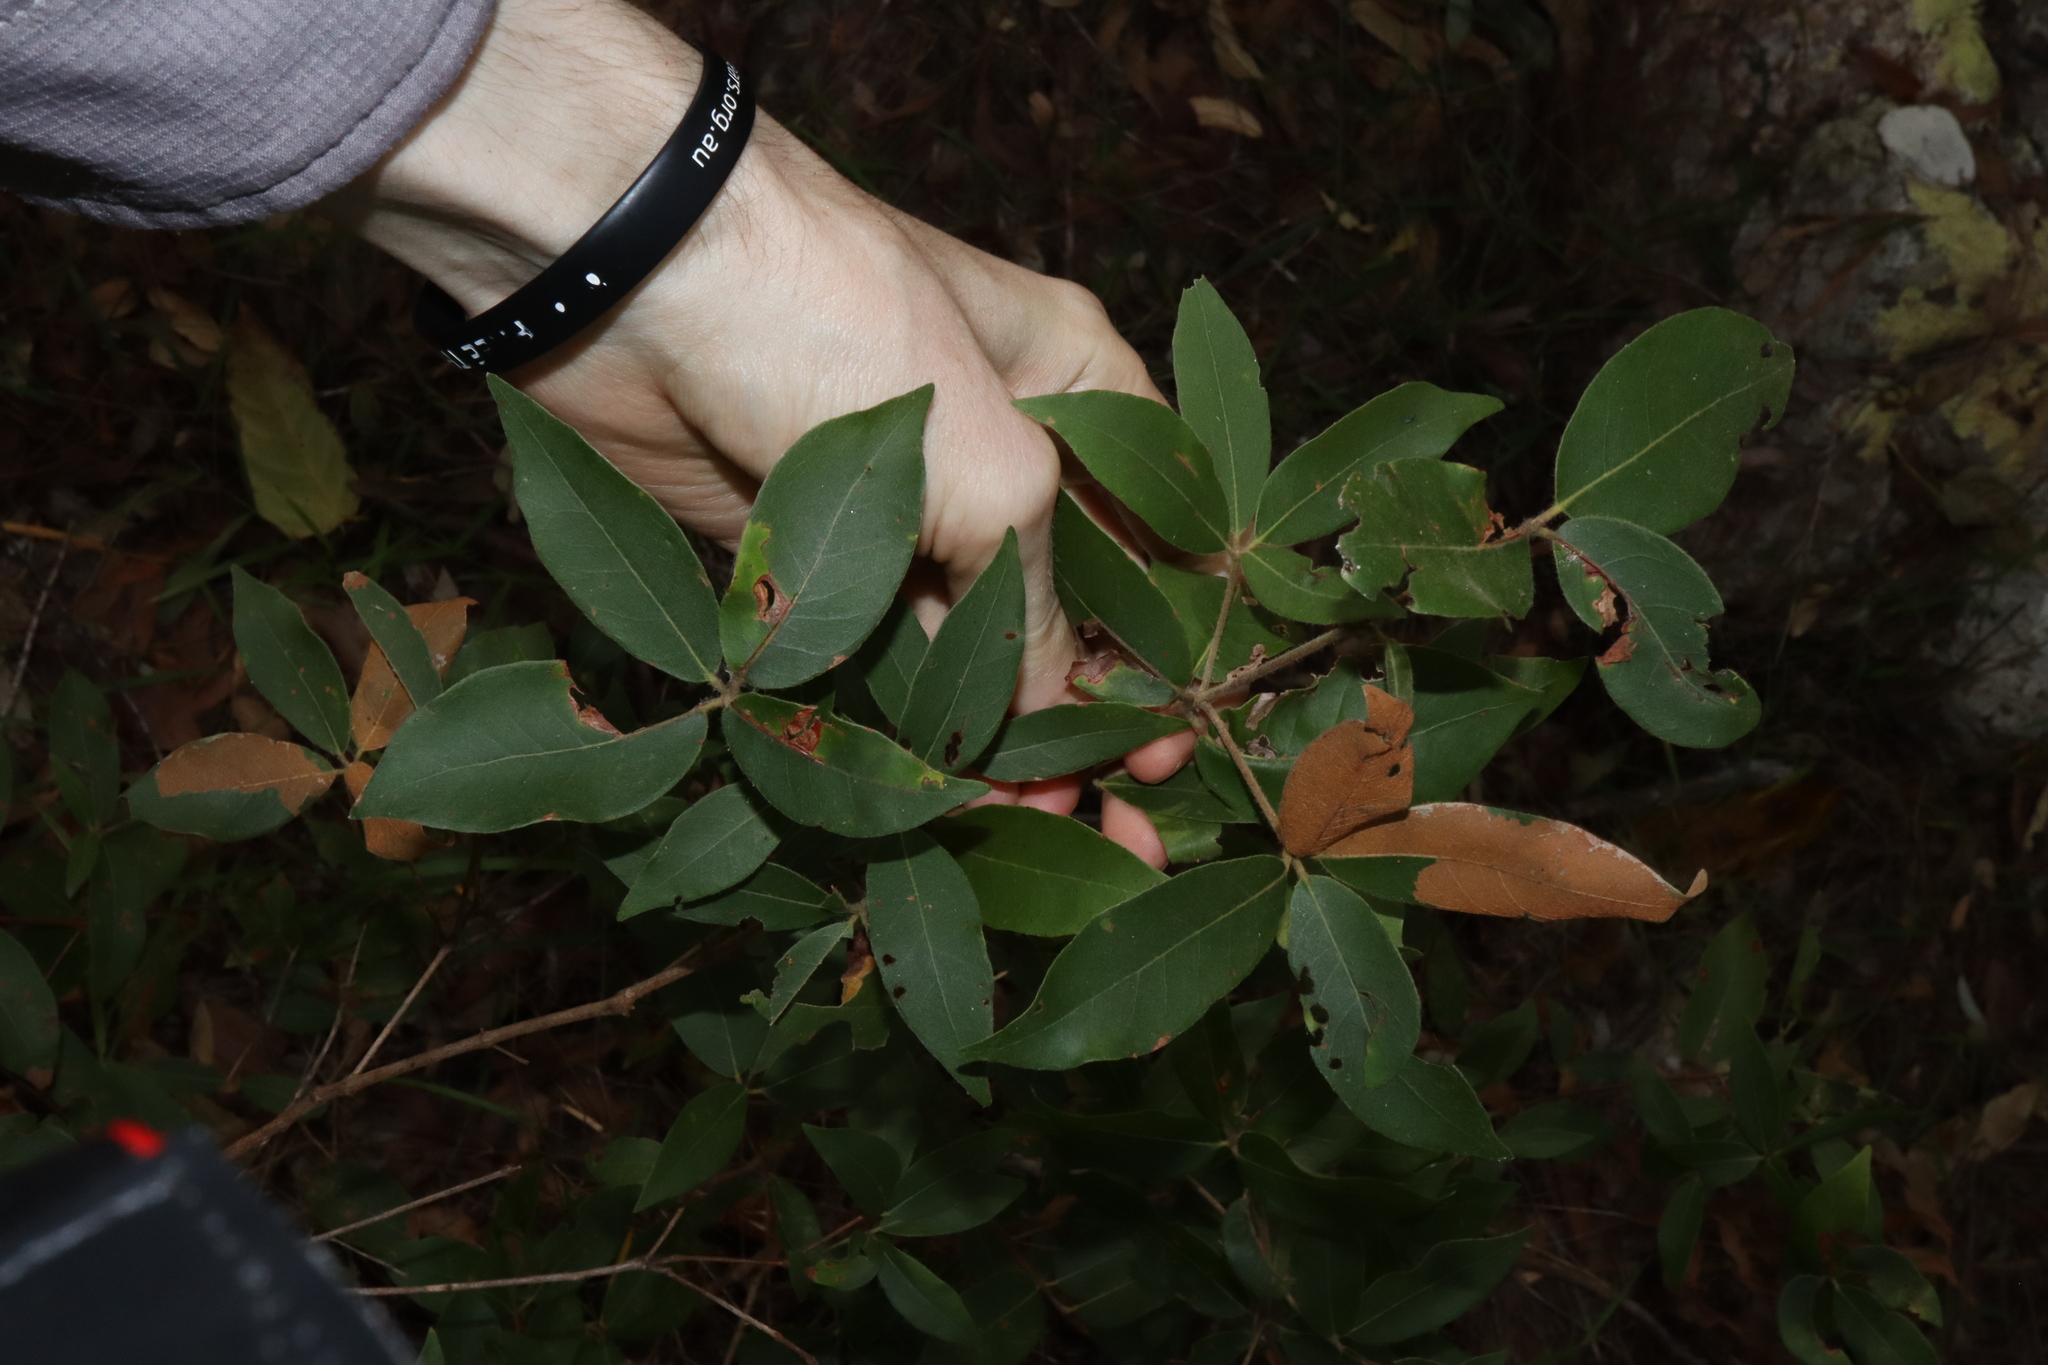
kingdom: Plantae
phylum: Tracheophyta
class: Magnoliopsida
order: Myrtales
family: Myrtaceae
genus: Syncarpia
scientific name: Syncarpia glomulifera
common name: Turpentine tree
